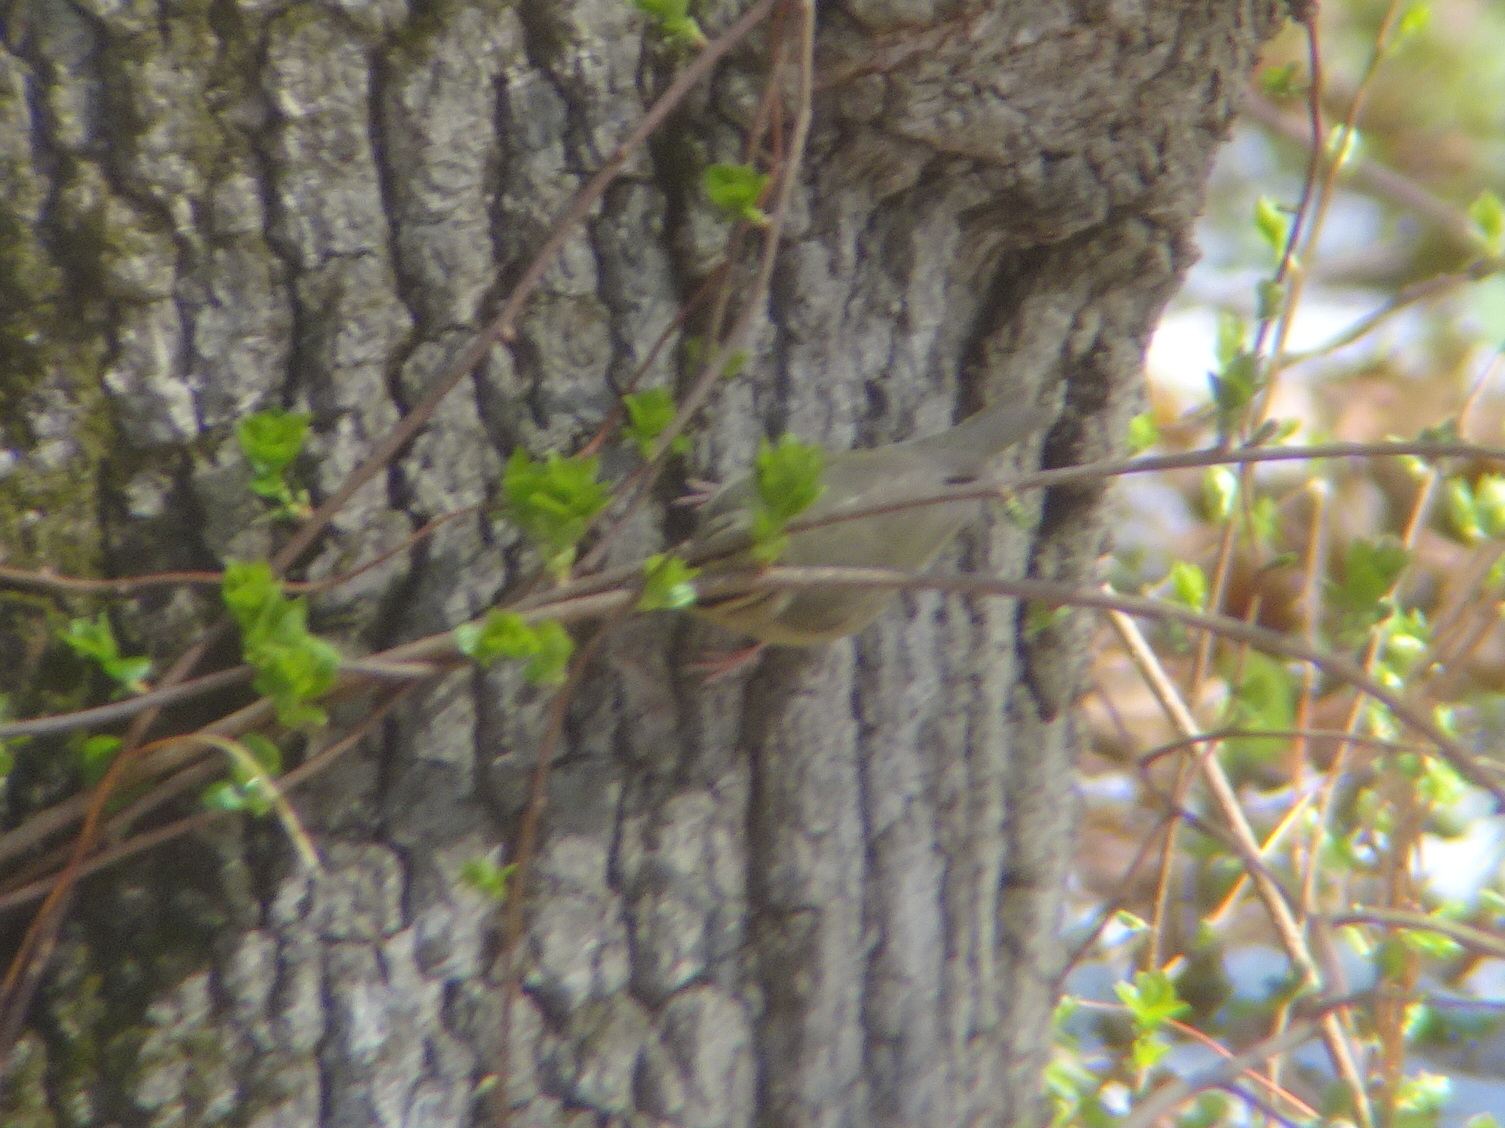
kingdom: Animalia
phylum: Chordata
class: Aves
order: Passeriformes
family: Parulidae
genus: Helmitheros
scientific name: Helmitheros vermivorum
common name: Worm-eating warbler
